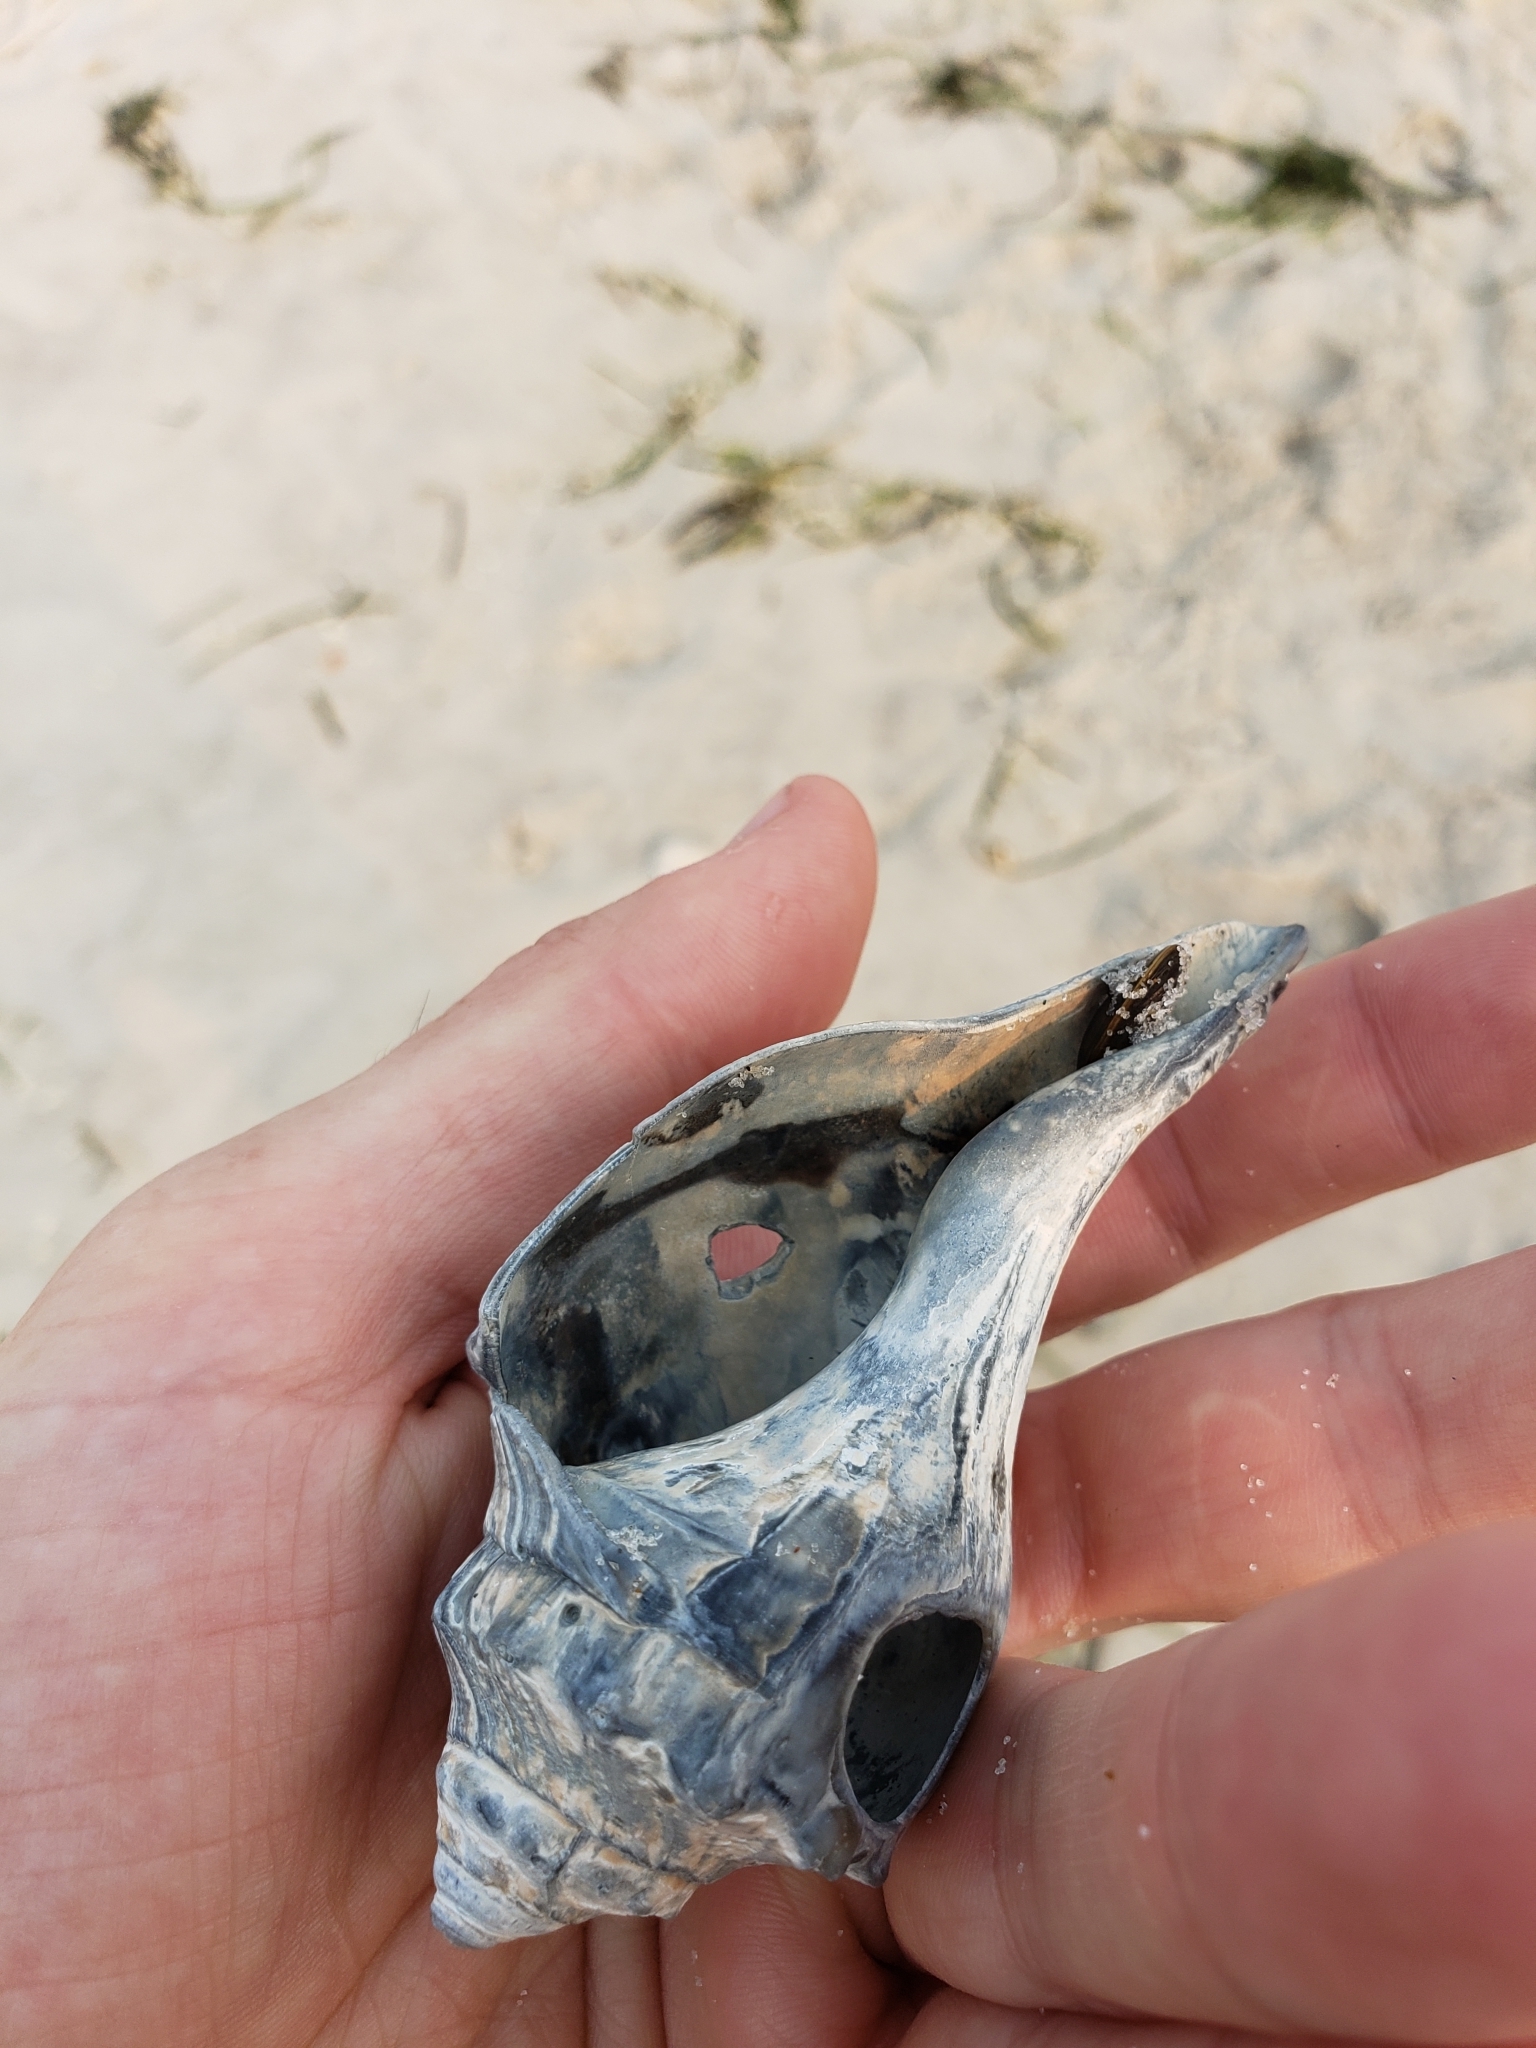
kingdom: Animalia
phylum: Mollusca
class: Gastropoda
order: Neogastropoda
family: Busyconidae
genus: Busycon
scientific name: Busycon carica
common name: Knobbed whelk
